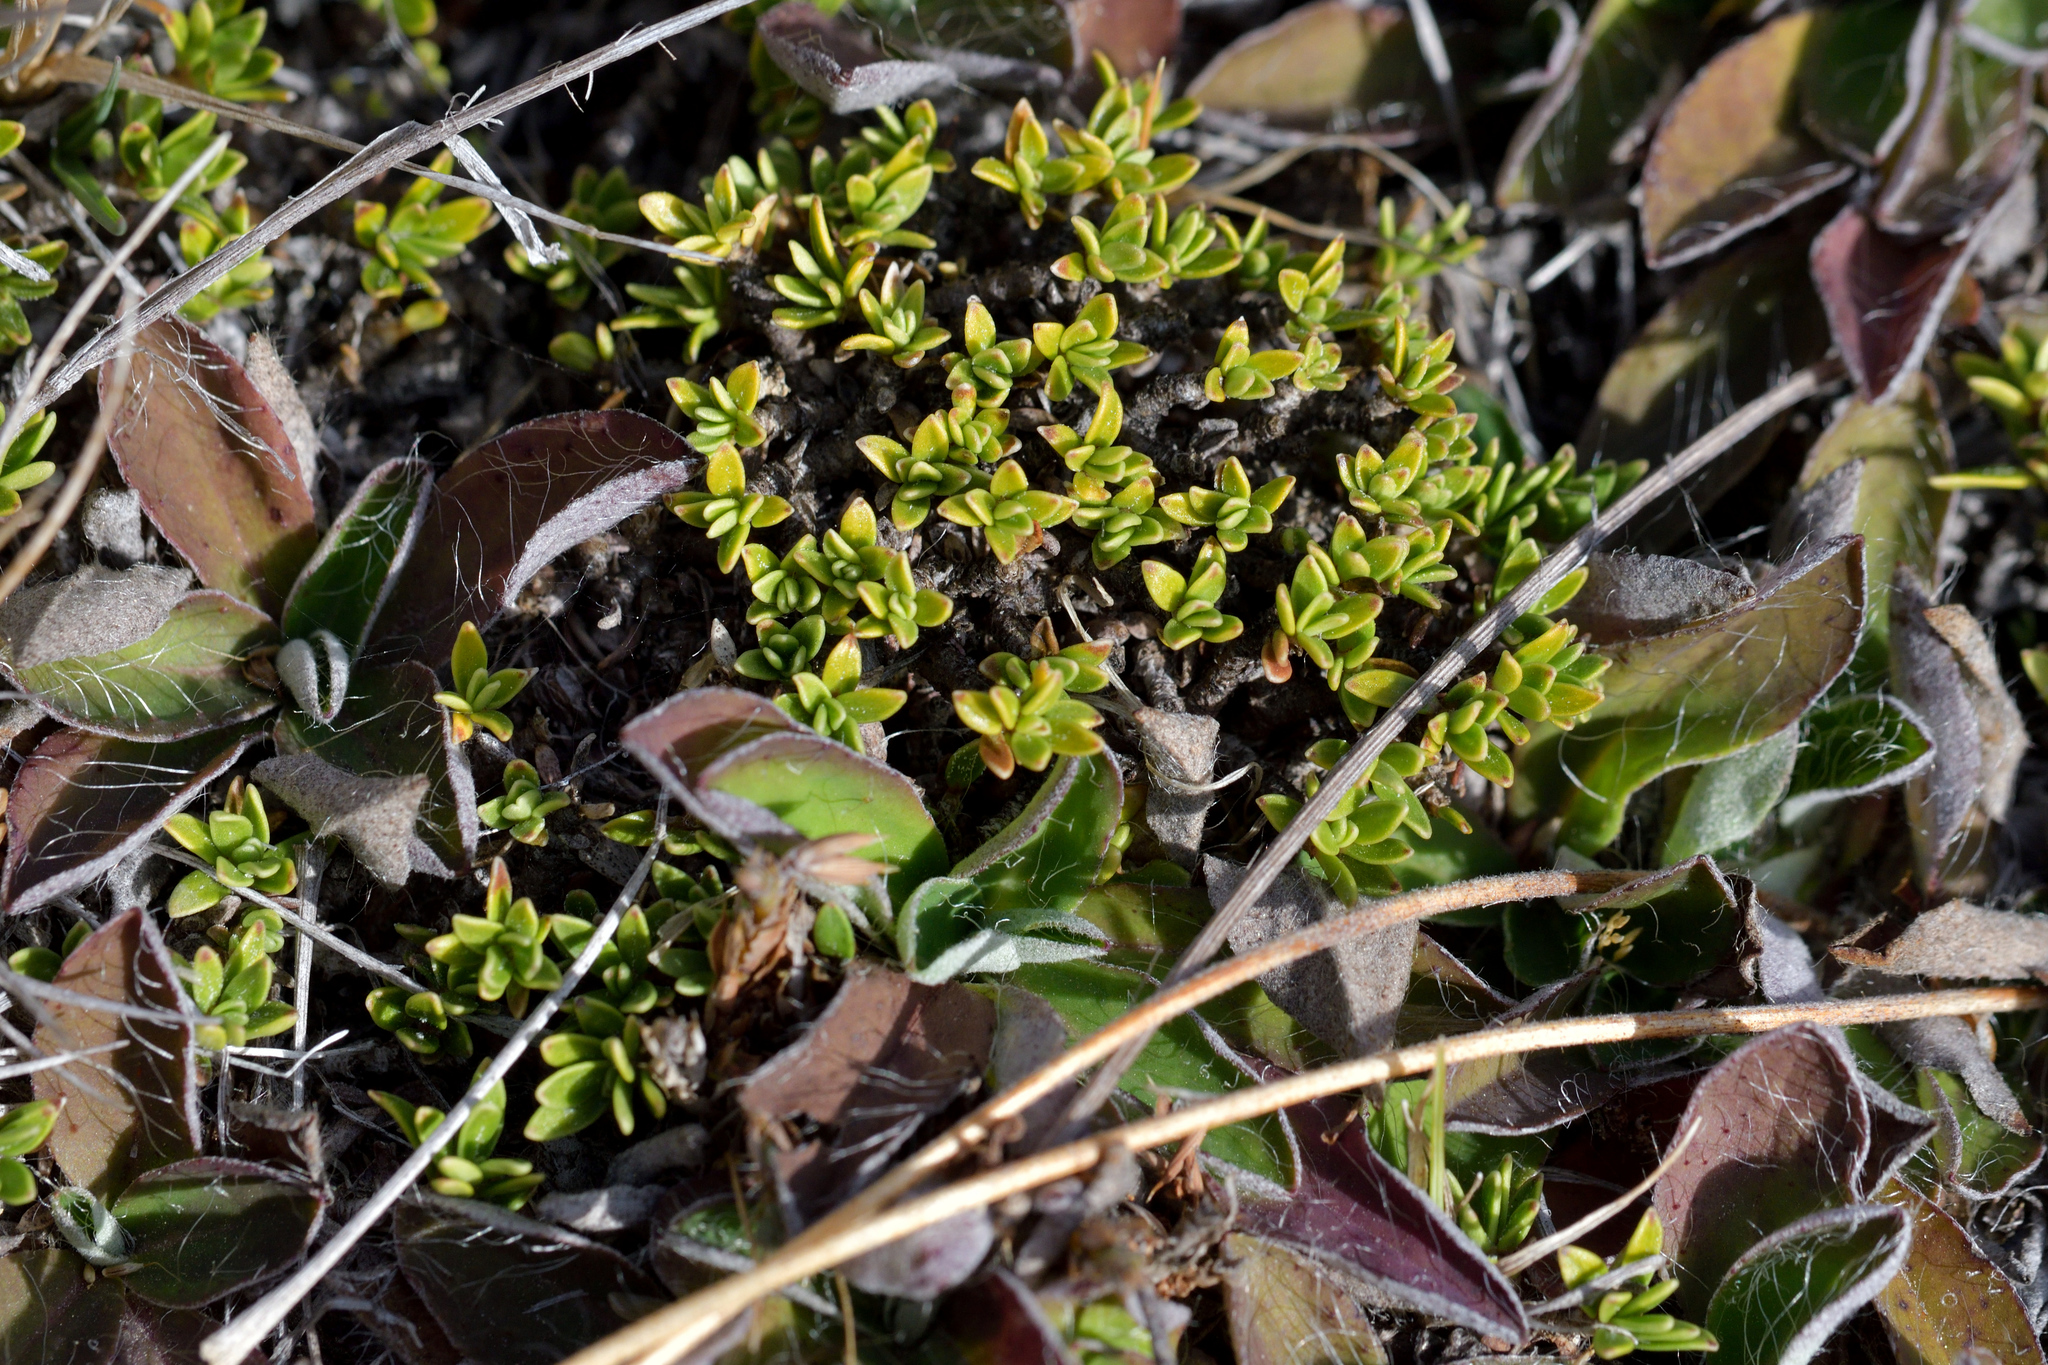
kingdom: Plantae
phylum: Tracheophyta
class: Magnoliopsida
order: Gentianales
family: Rubiaceae
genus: Coprosma
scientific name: Coprosma petriei
